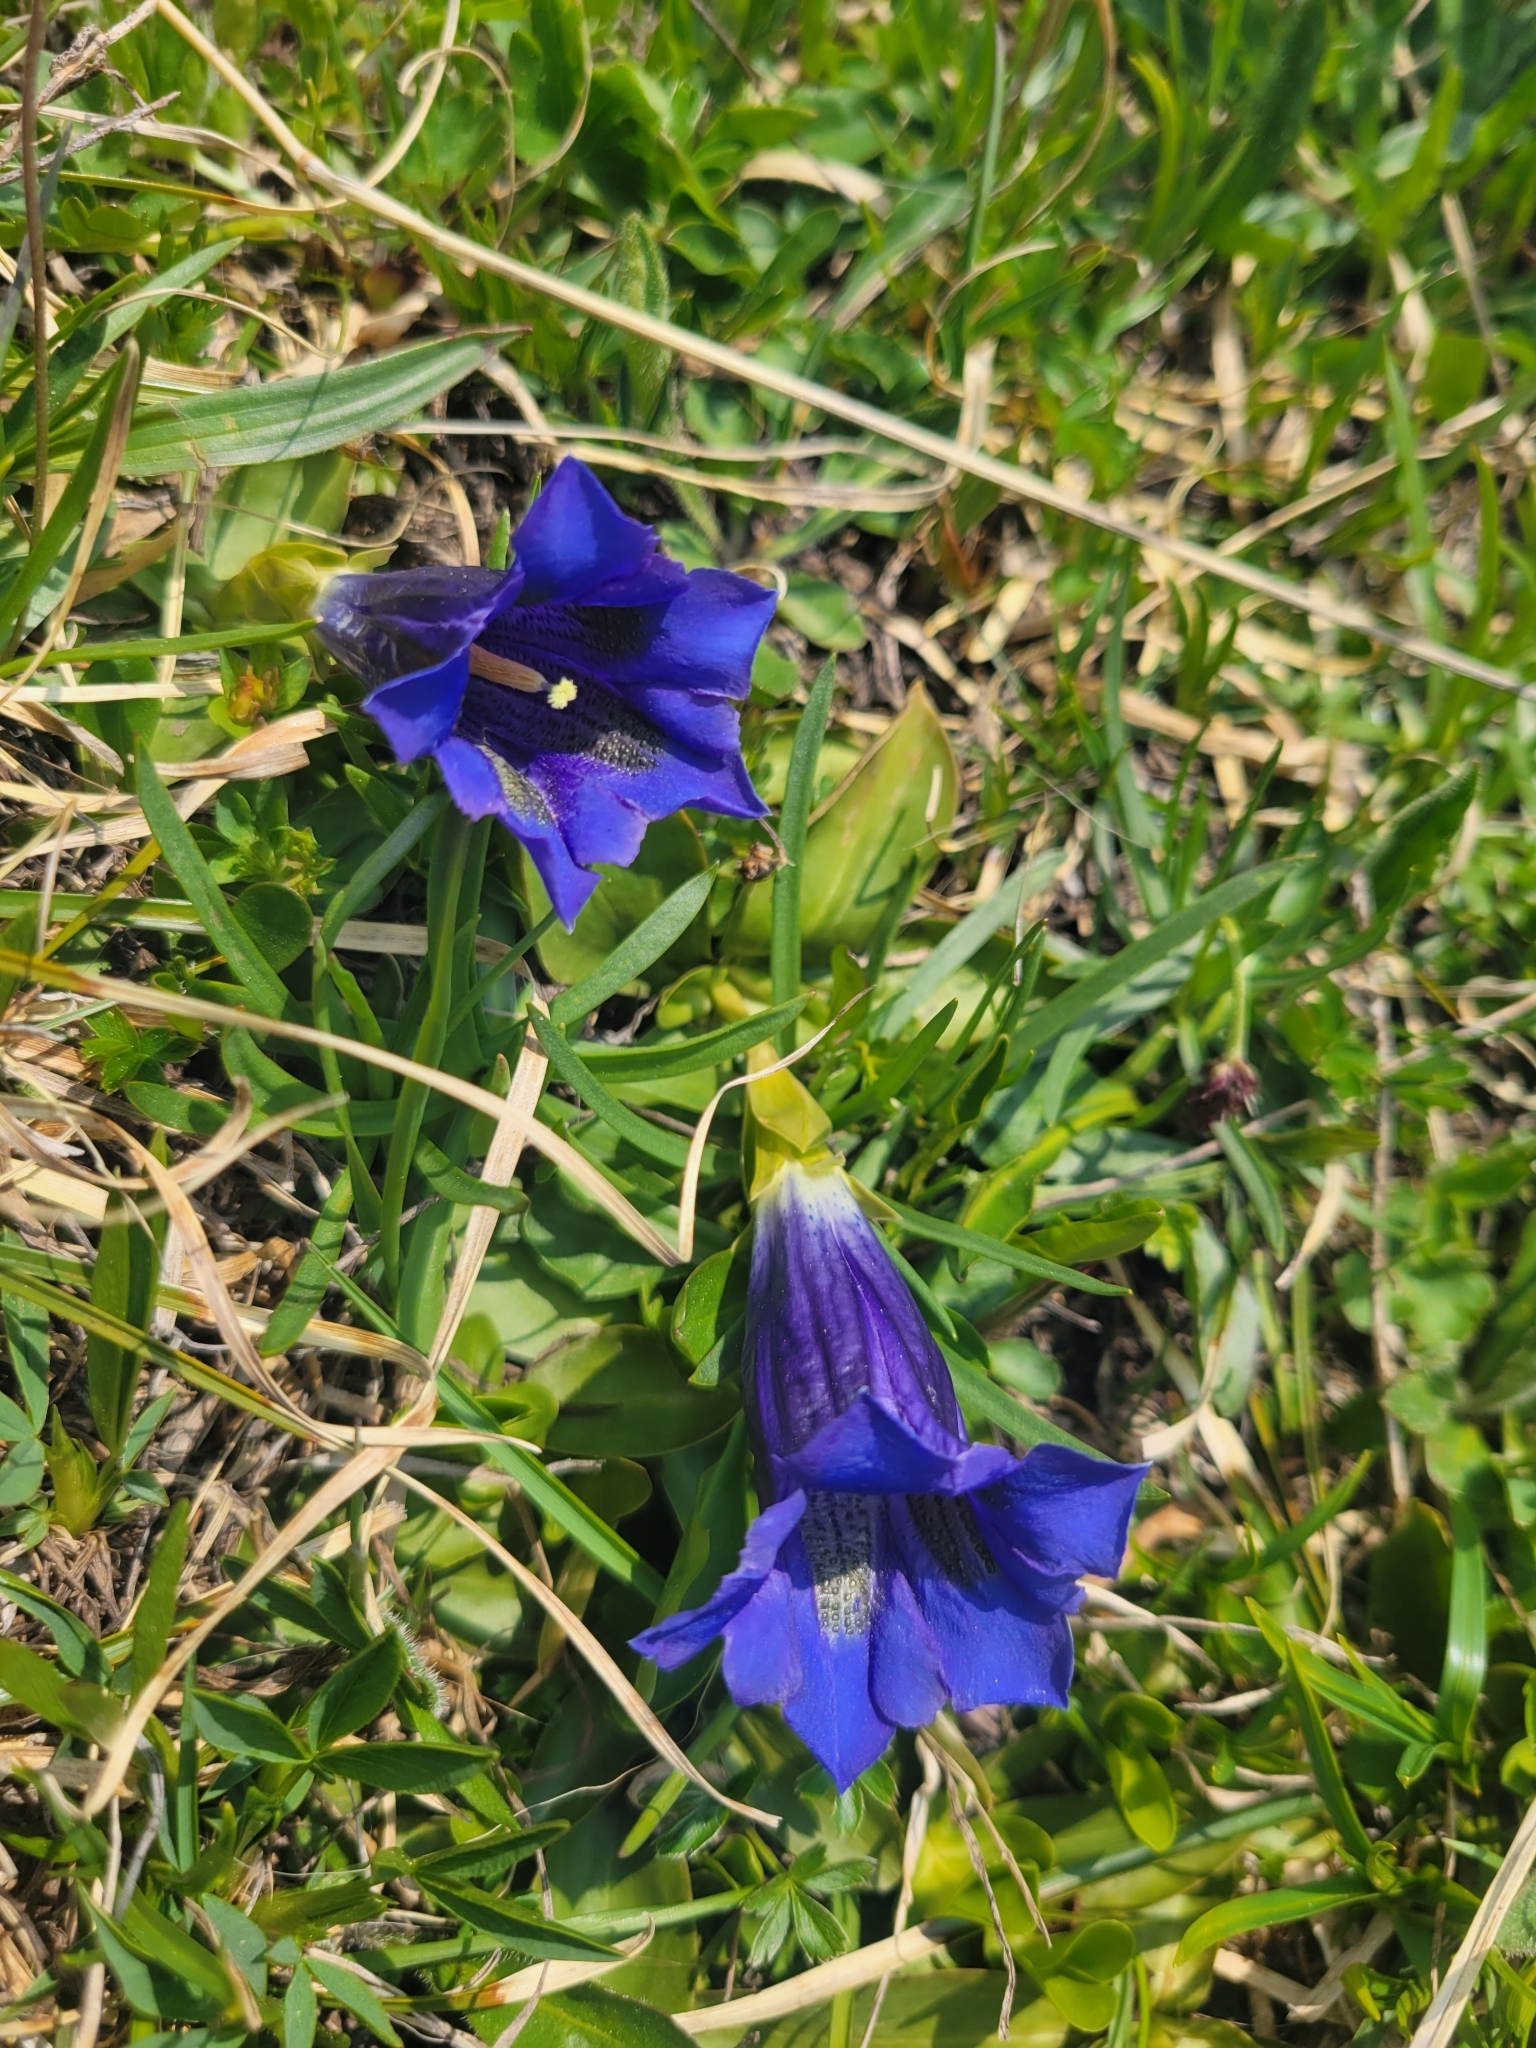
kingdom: Plantae
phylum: Tracheophyta
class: Magnoliopsida
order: Gentianales
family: Gentianaceae
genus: Gentiana
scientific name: Gentiana acaulis
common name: Trumpet gentian
